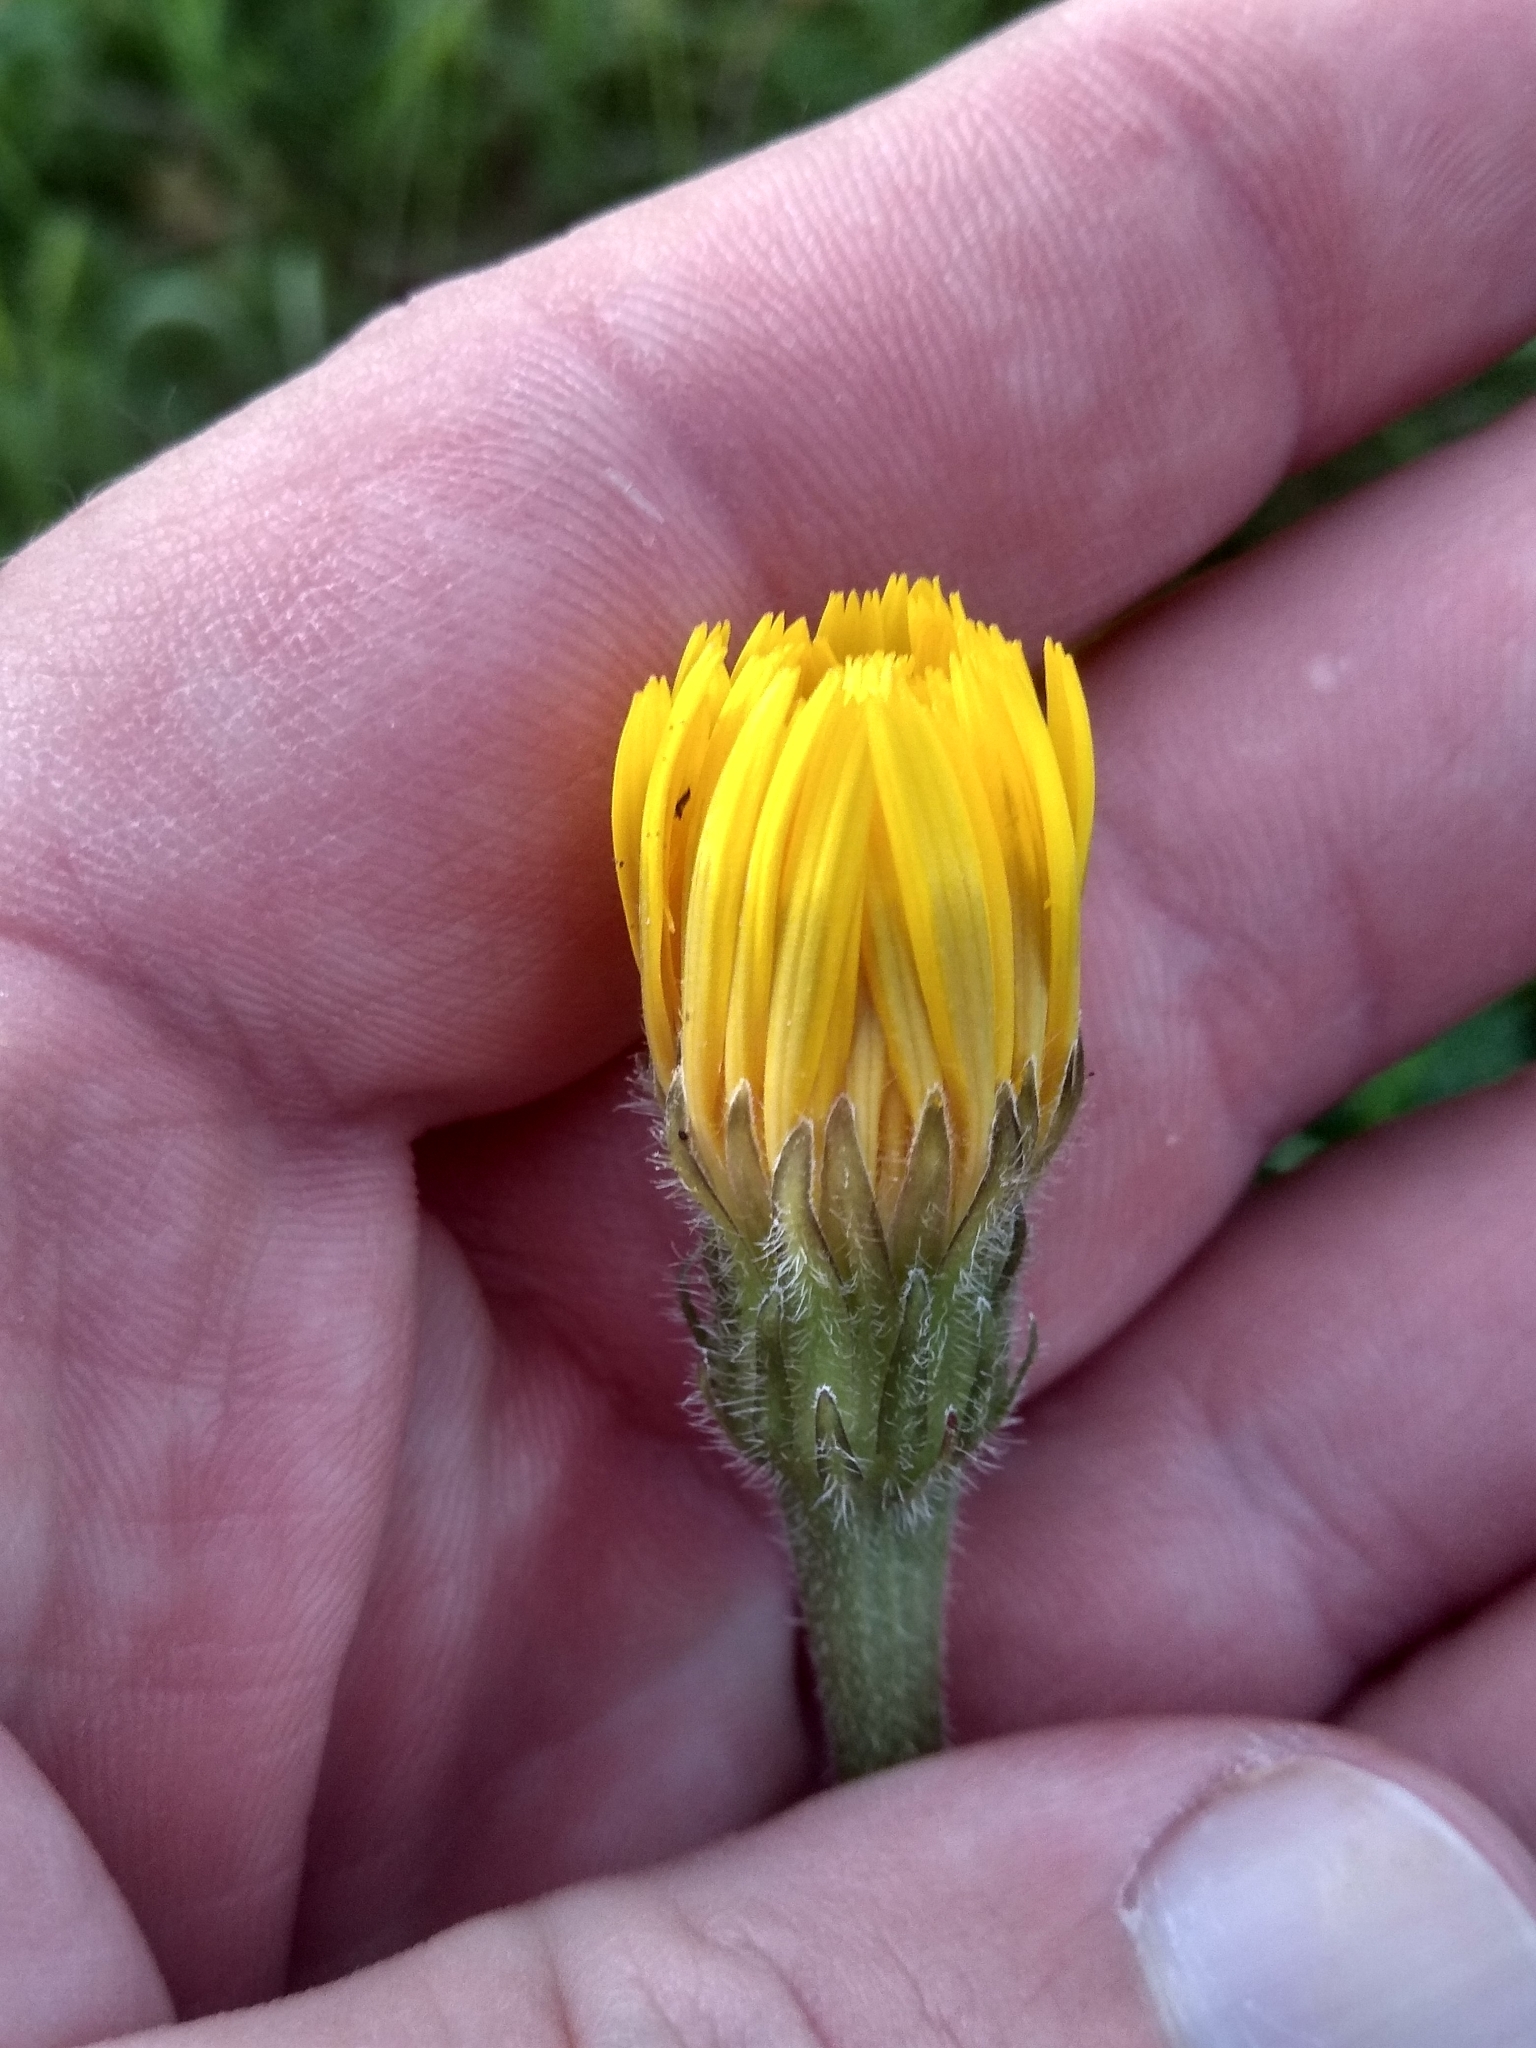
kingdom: Plantae
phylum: Tracheophyta
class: Magnoliopsida
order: Asterales
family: Asteraceae
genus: Leontodon
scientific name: Leontodon hispidus
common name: Rough hawkbit
